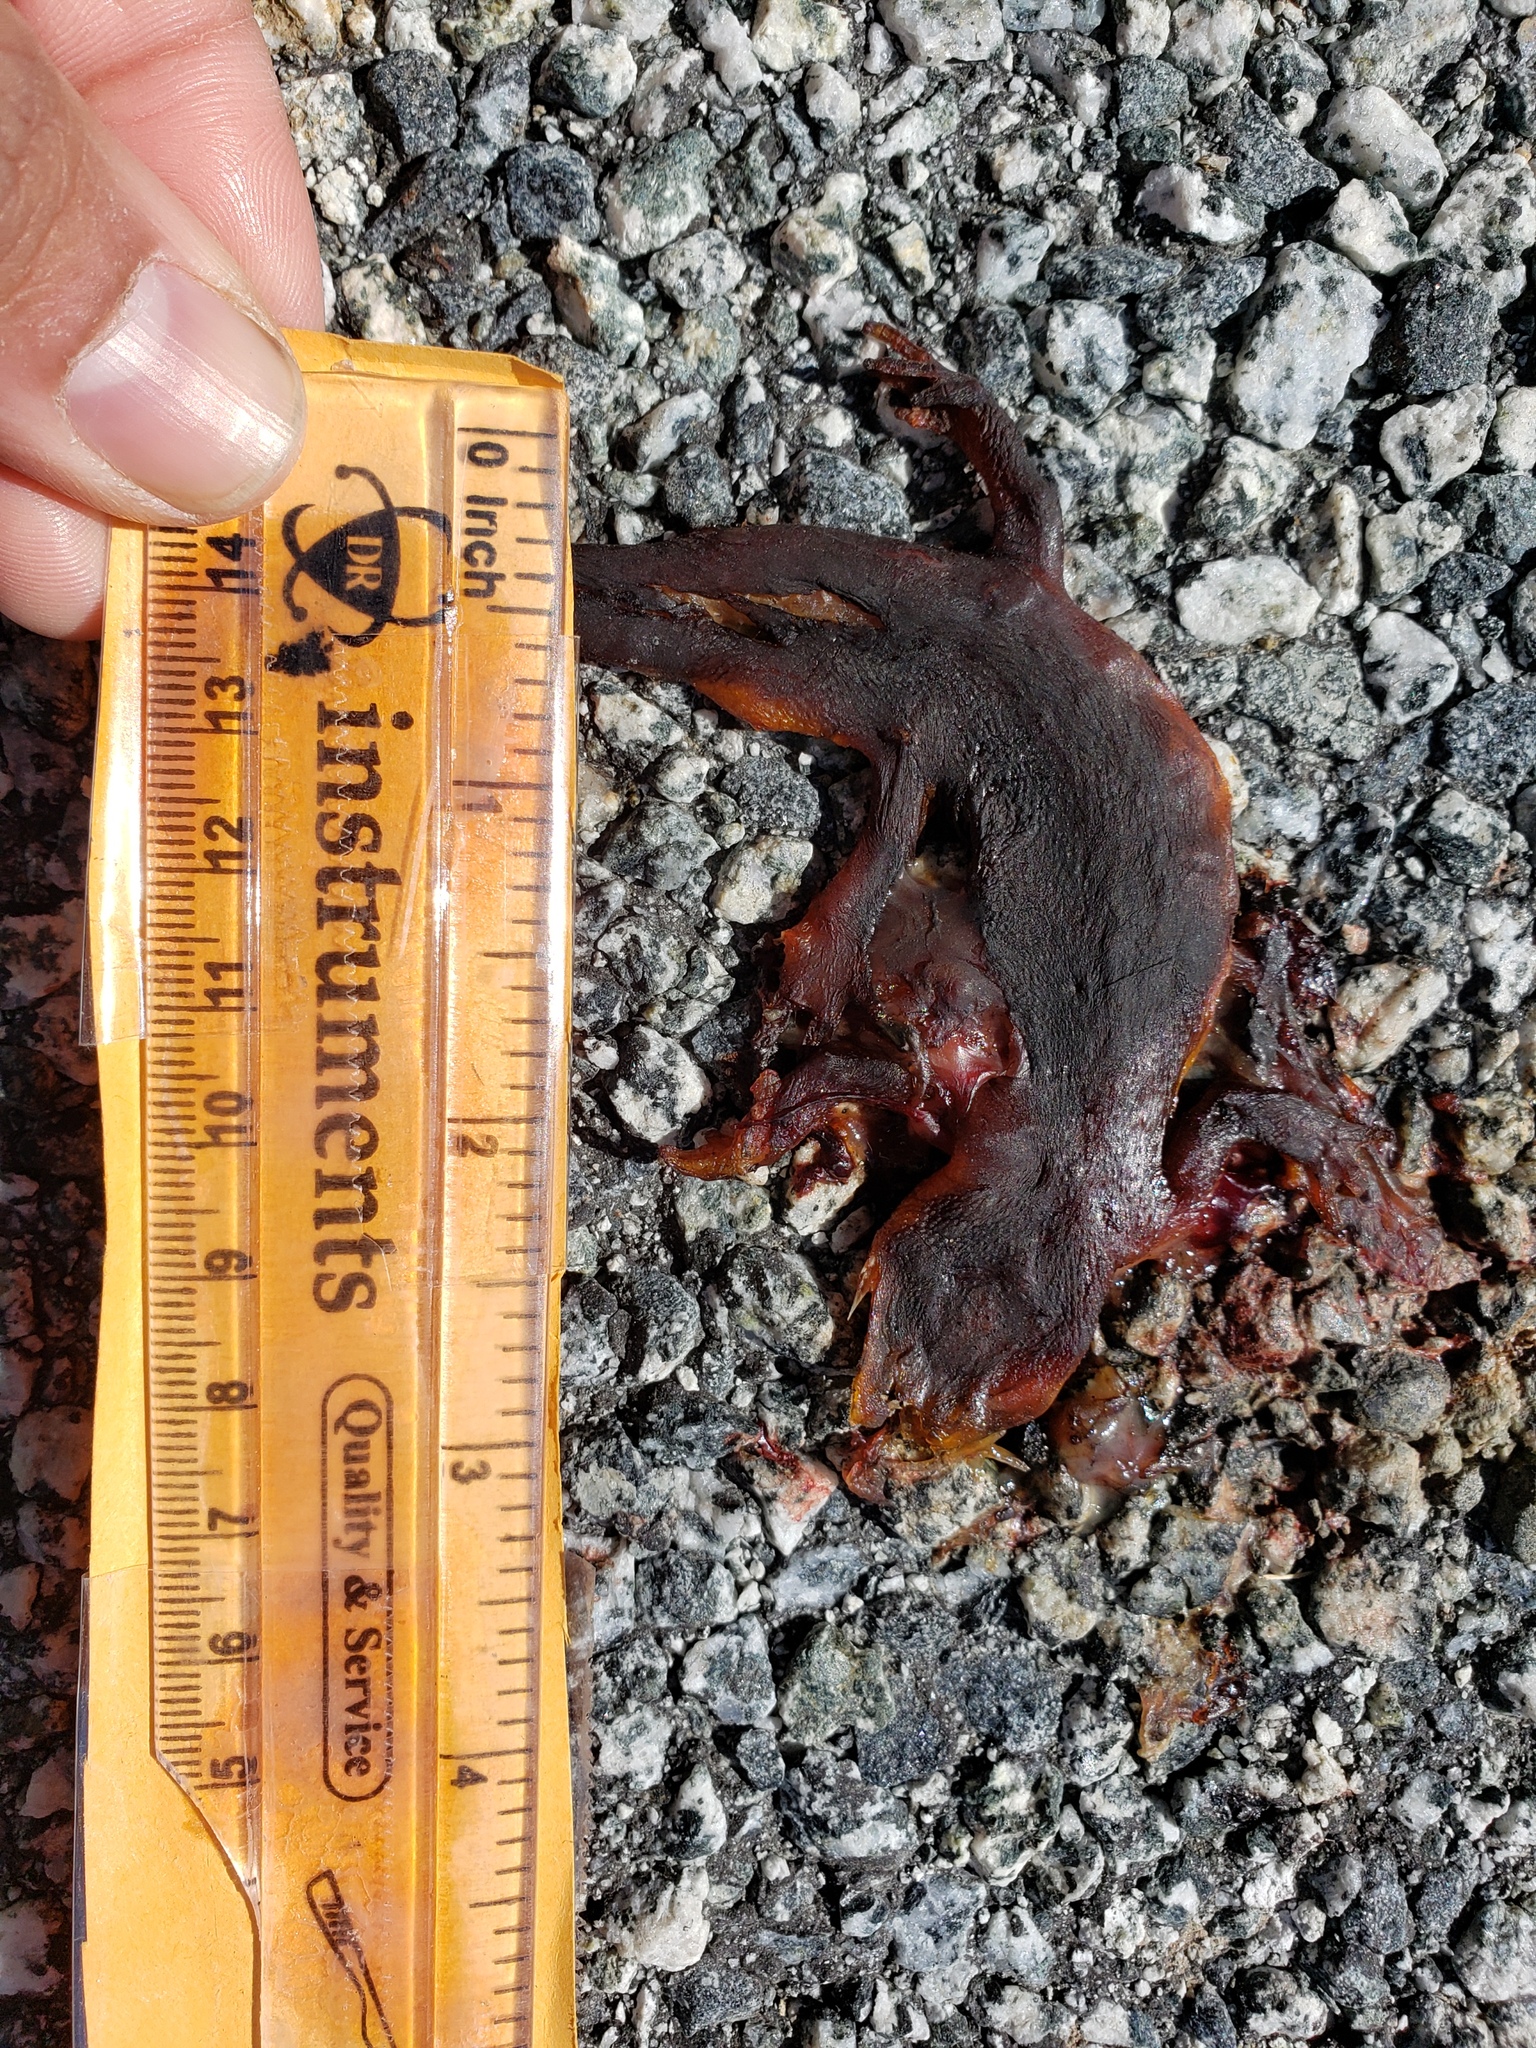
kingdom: Animalia
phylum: Chordata
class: Amphibia
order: Caudata
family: Salamandridae
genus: Taricha
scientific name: Taricha
